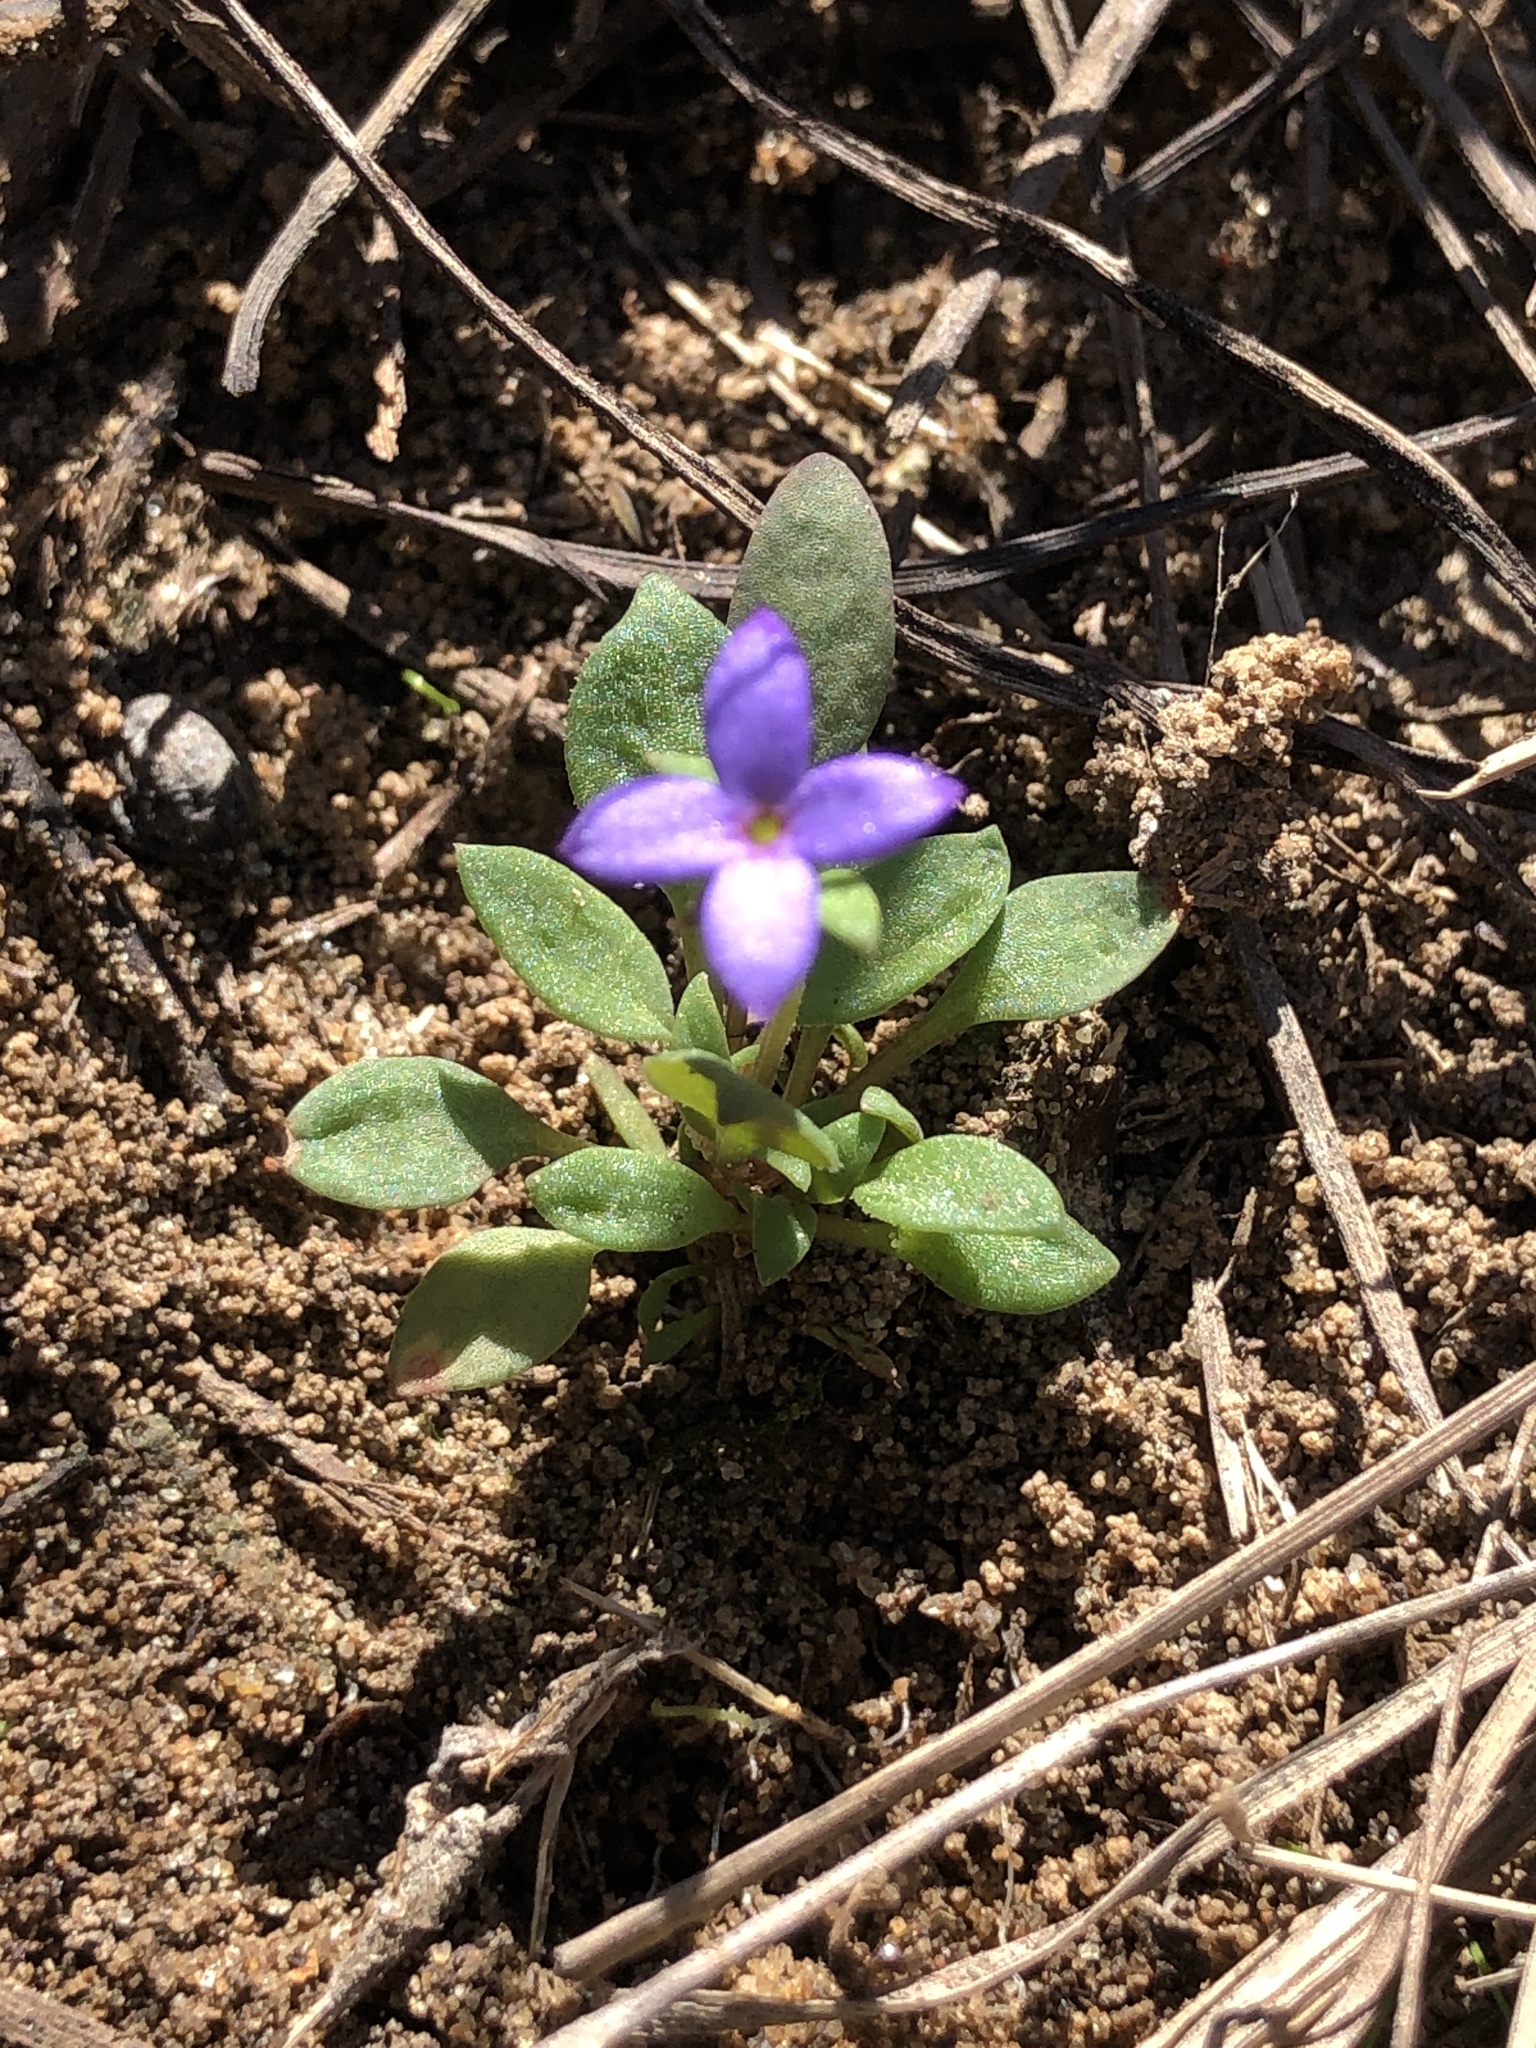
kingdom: Plantae
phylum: Tracheophyta
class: Magnoliopsida
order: Gentianales
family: Rubiaceae
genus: Houstonia
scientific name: Houstonia pusilla
